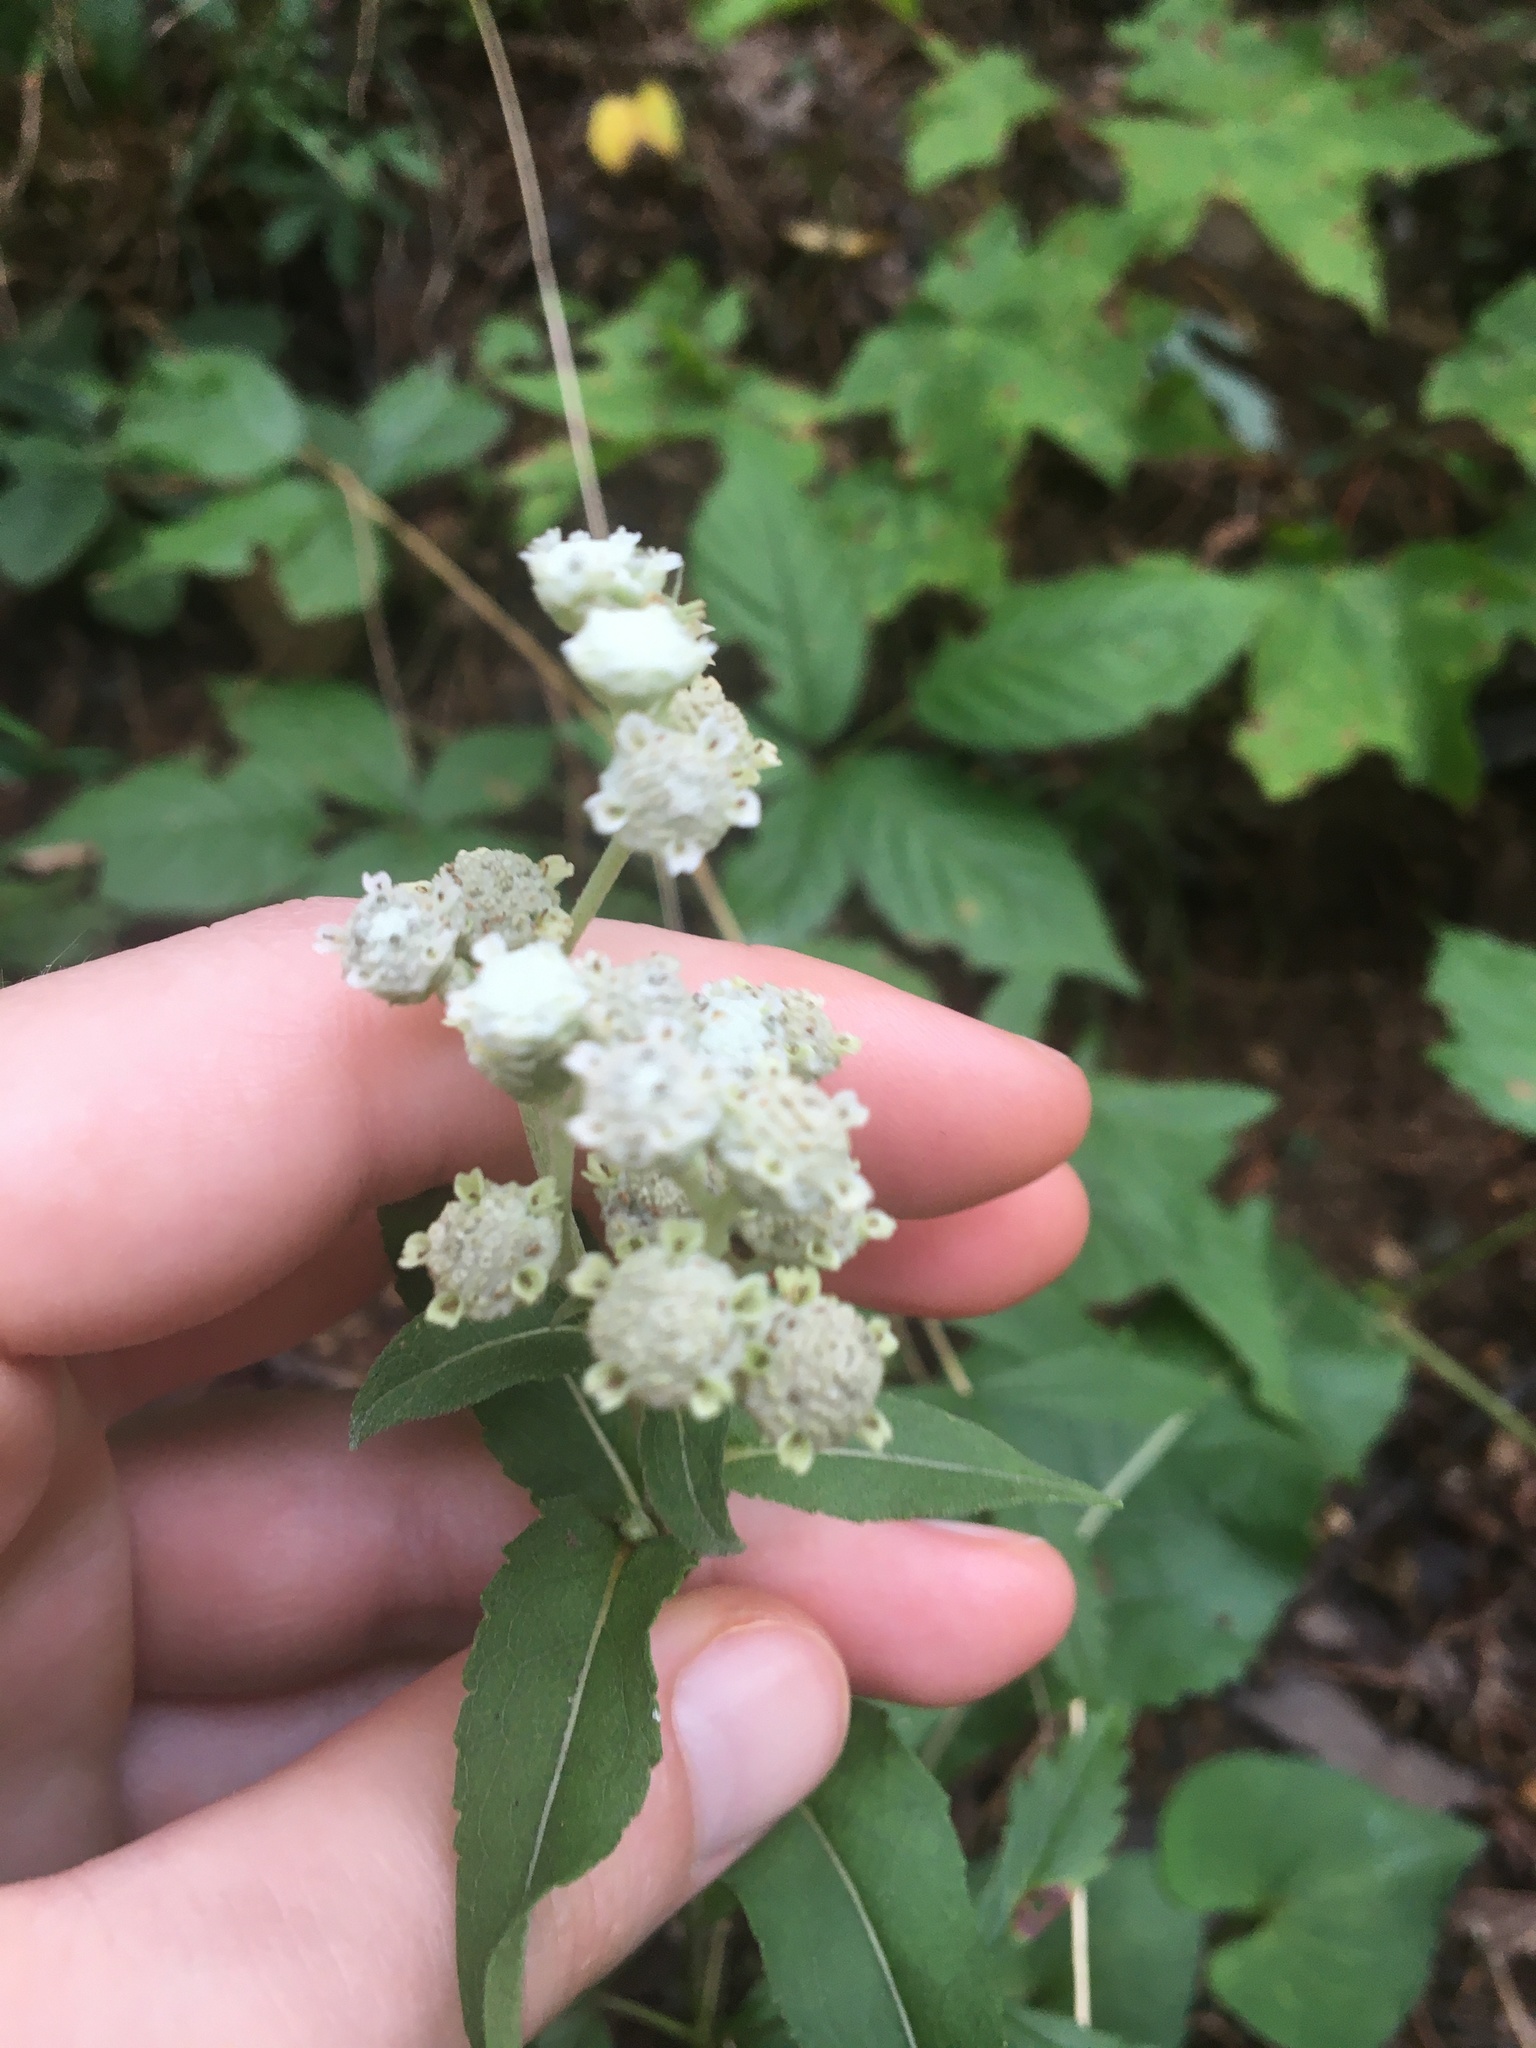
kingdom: Plantae
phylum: Tracheophyta
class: Magnoliopsida
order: Asterales
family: Asteraceae
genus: Parthenium
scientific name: Parthenium integrifolium
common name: American feverfew
